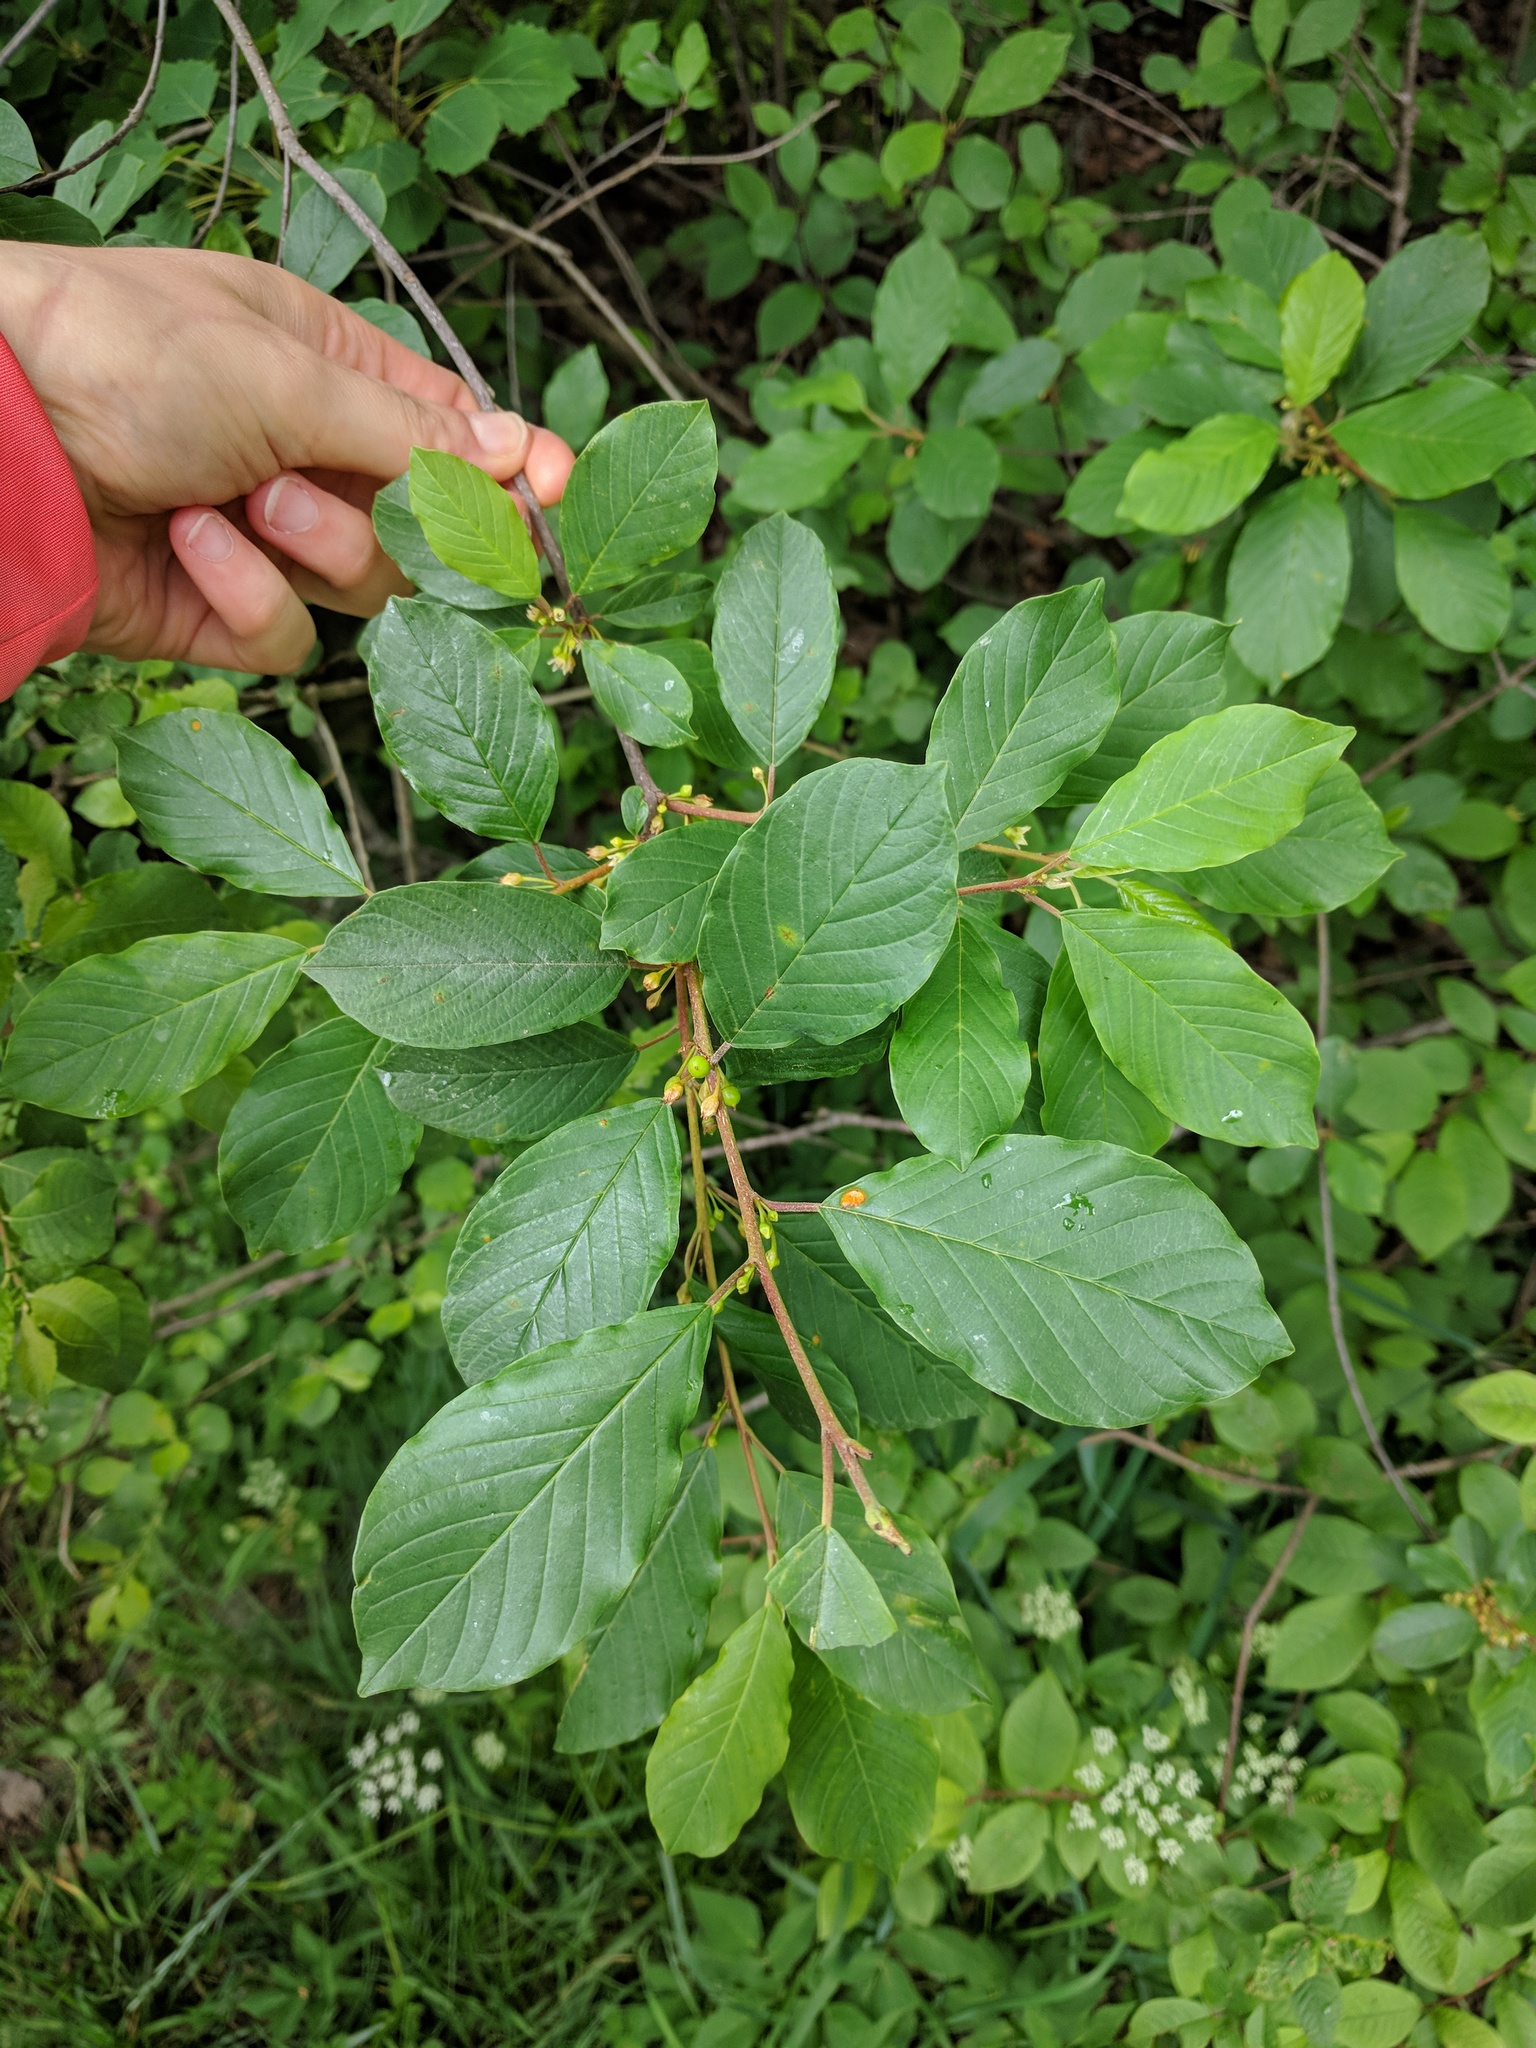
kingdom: Plantae
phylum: Tracheophyta
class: Magnoliopsida
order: Rosales
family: Rhamnaceae
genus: Frangula
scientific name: Frangula alnus
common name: Alder buckthorn
